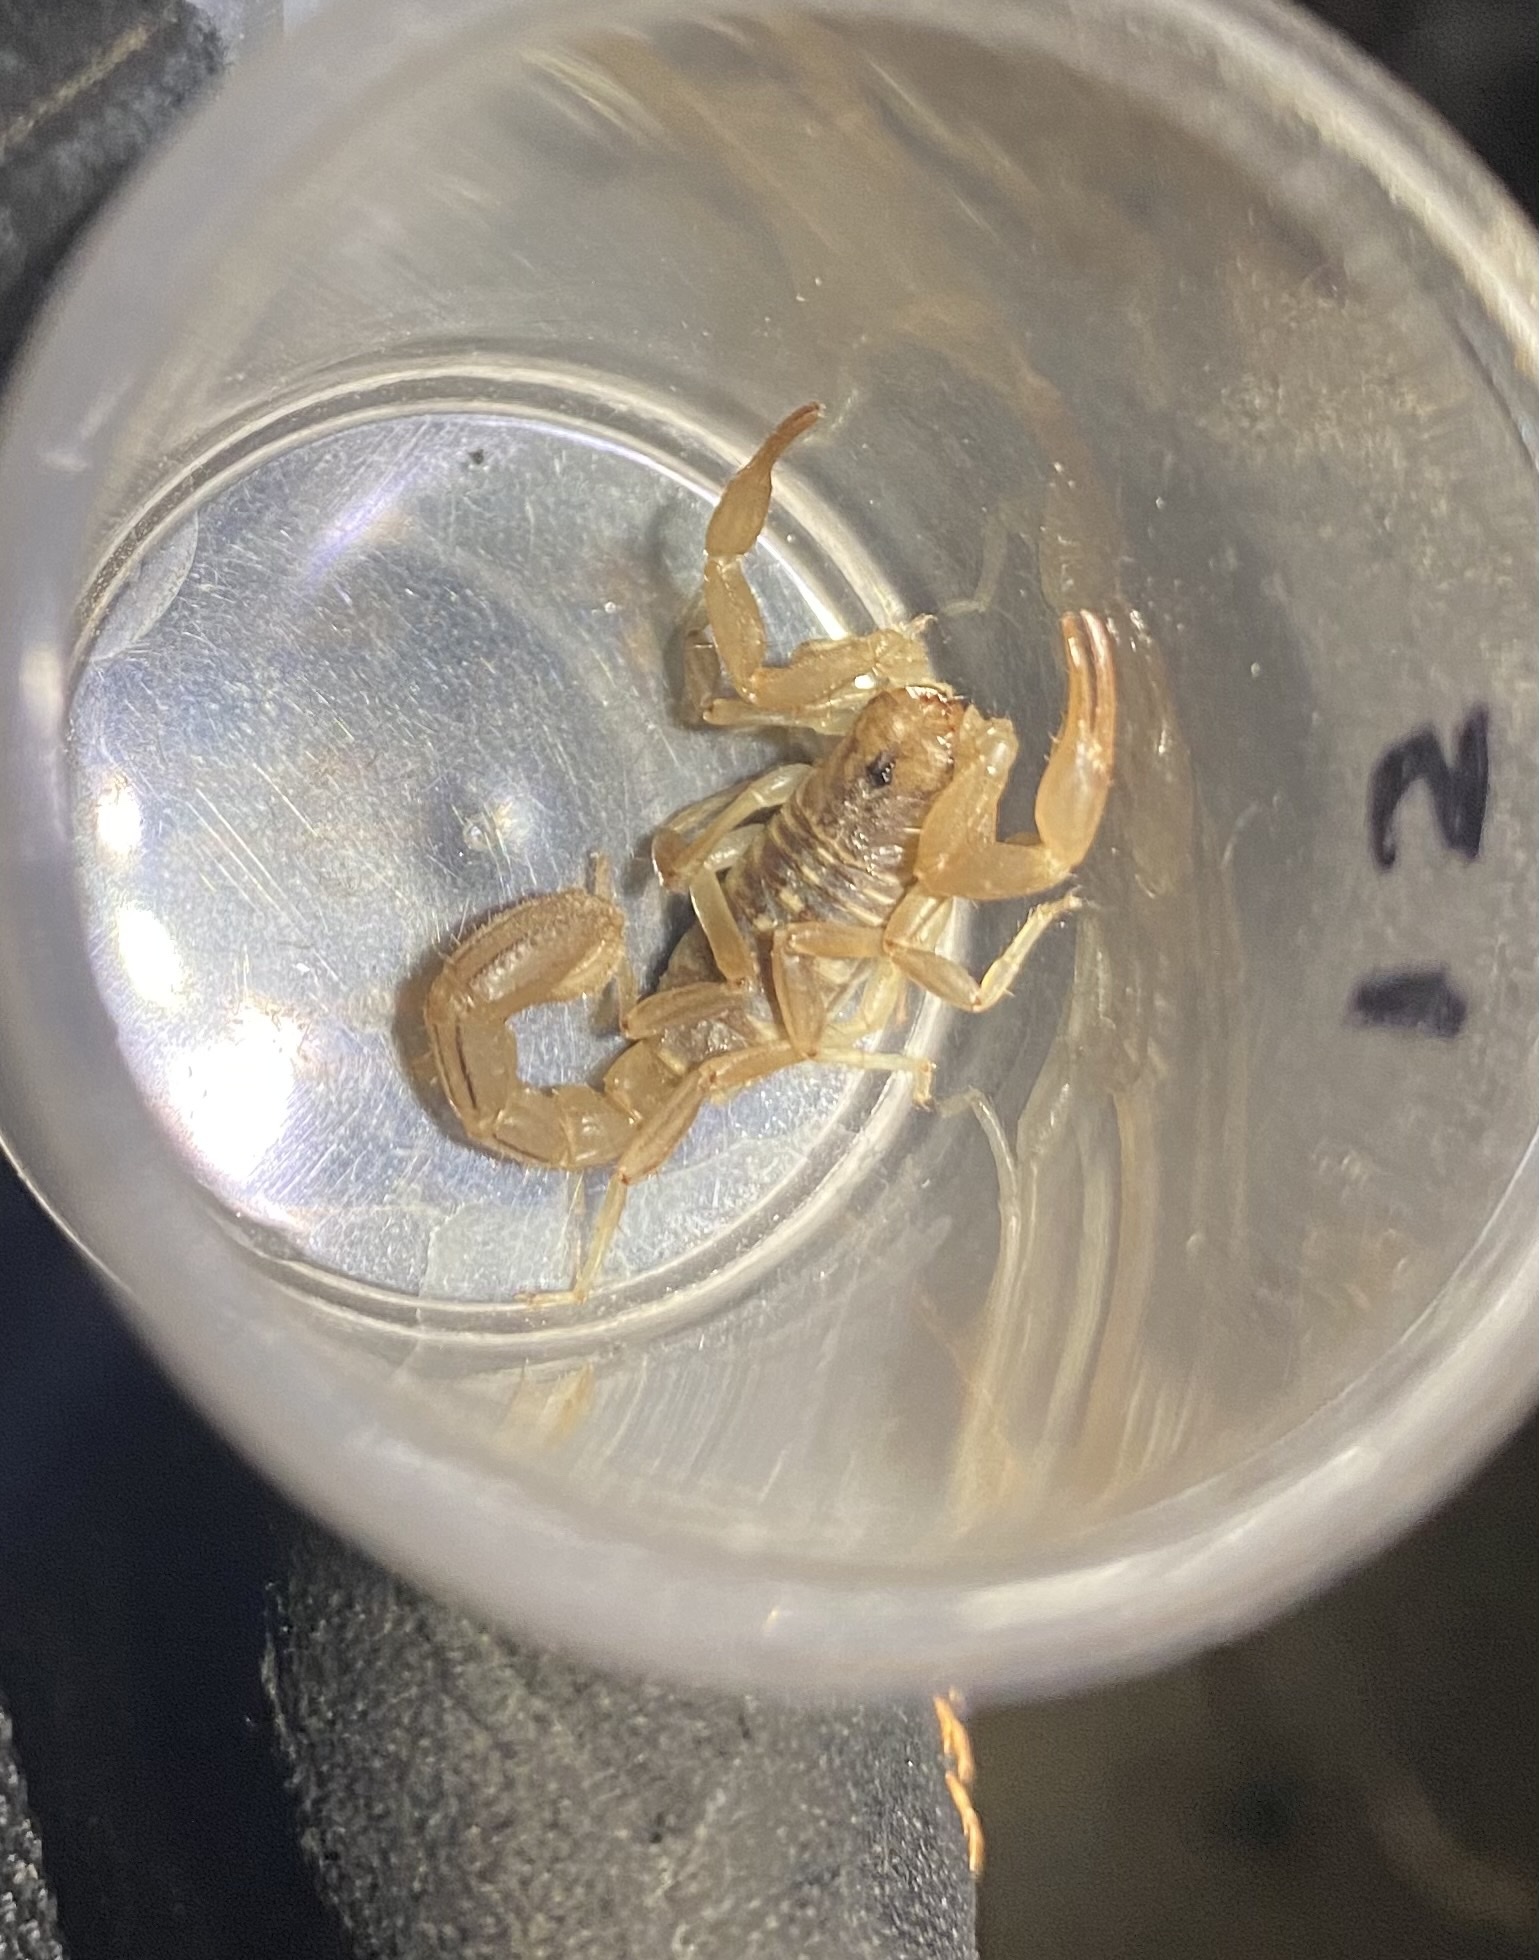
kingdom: Animalia
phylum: Arthropoda
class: Arachnida
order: Scorpiones
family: Vaejovidae
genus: Paravaejovis
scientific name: Paravaejovis spinigerus
